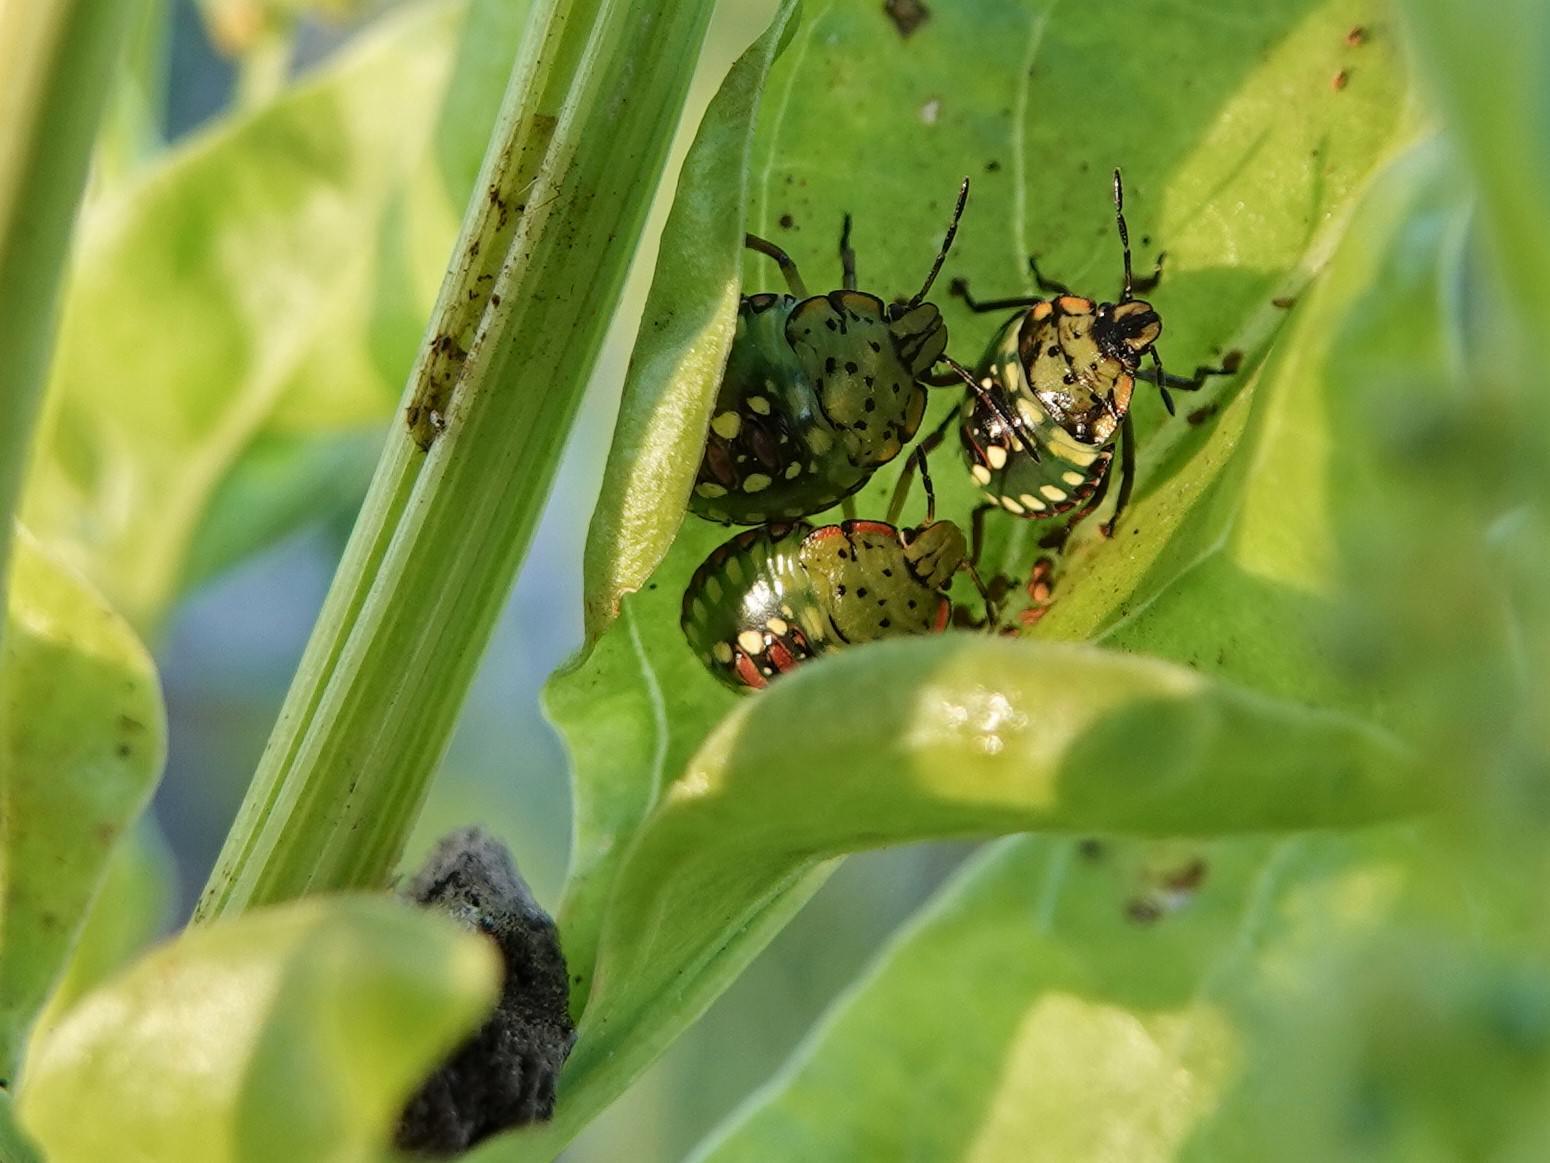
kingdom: Animalia
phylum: Arthropoda
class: Insecta
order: Hemiptera
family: Pentatomidae
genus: Nezara
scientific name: Nezara viridula
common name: Southern green stink bug
